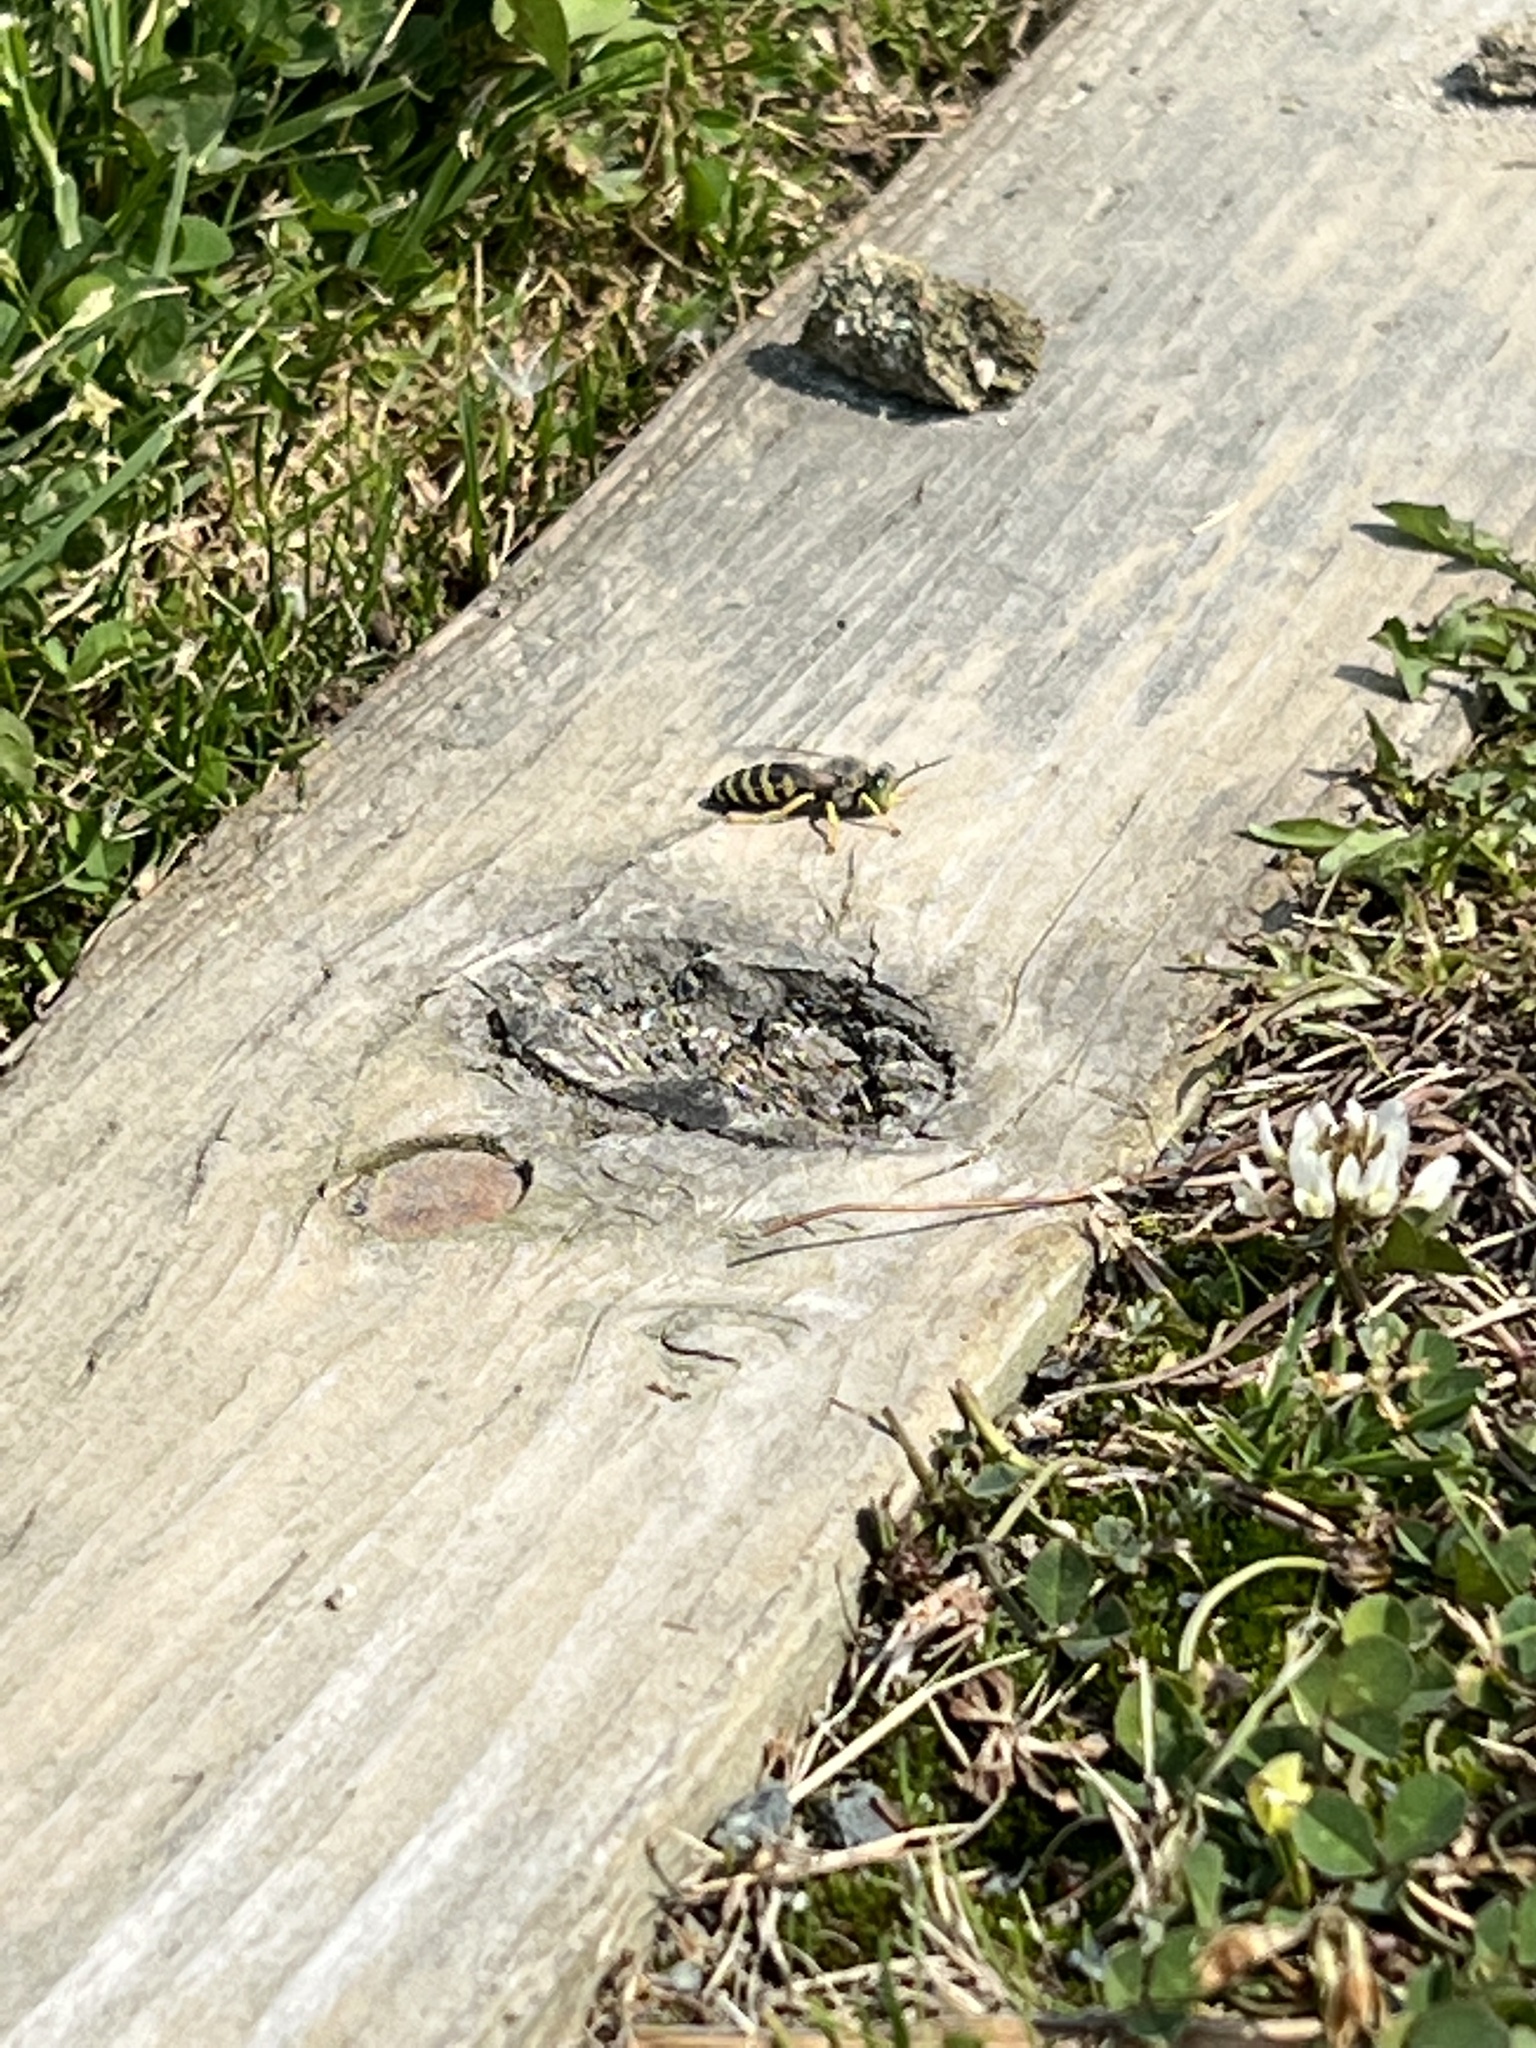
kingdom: Animalia
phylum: Arthropoda
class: Insecta
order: Hymenoptera
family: Crabronidae
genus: Bembix
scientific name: Bembix americana
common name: American sand wasp
